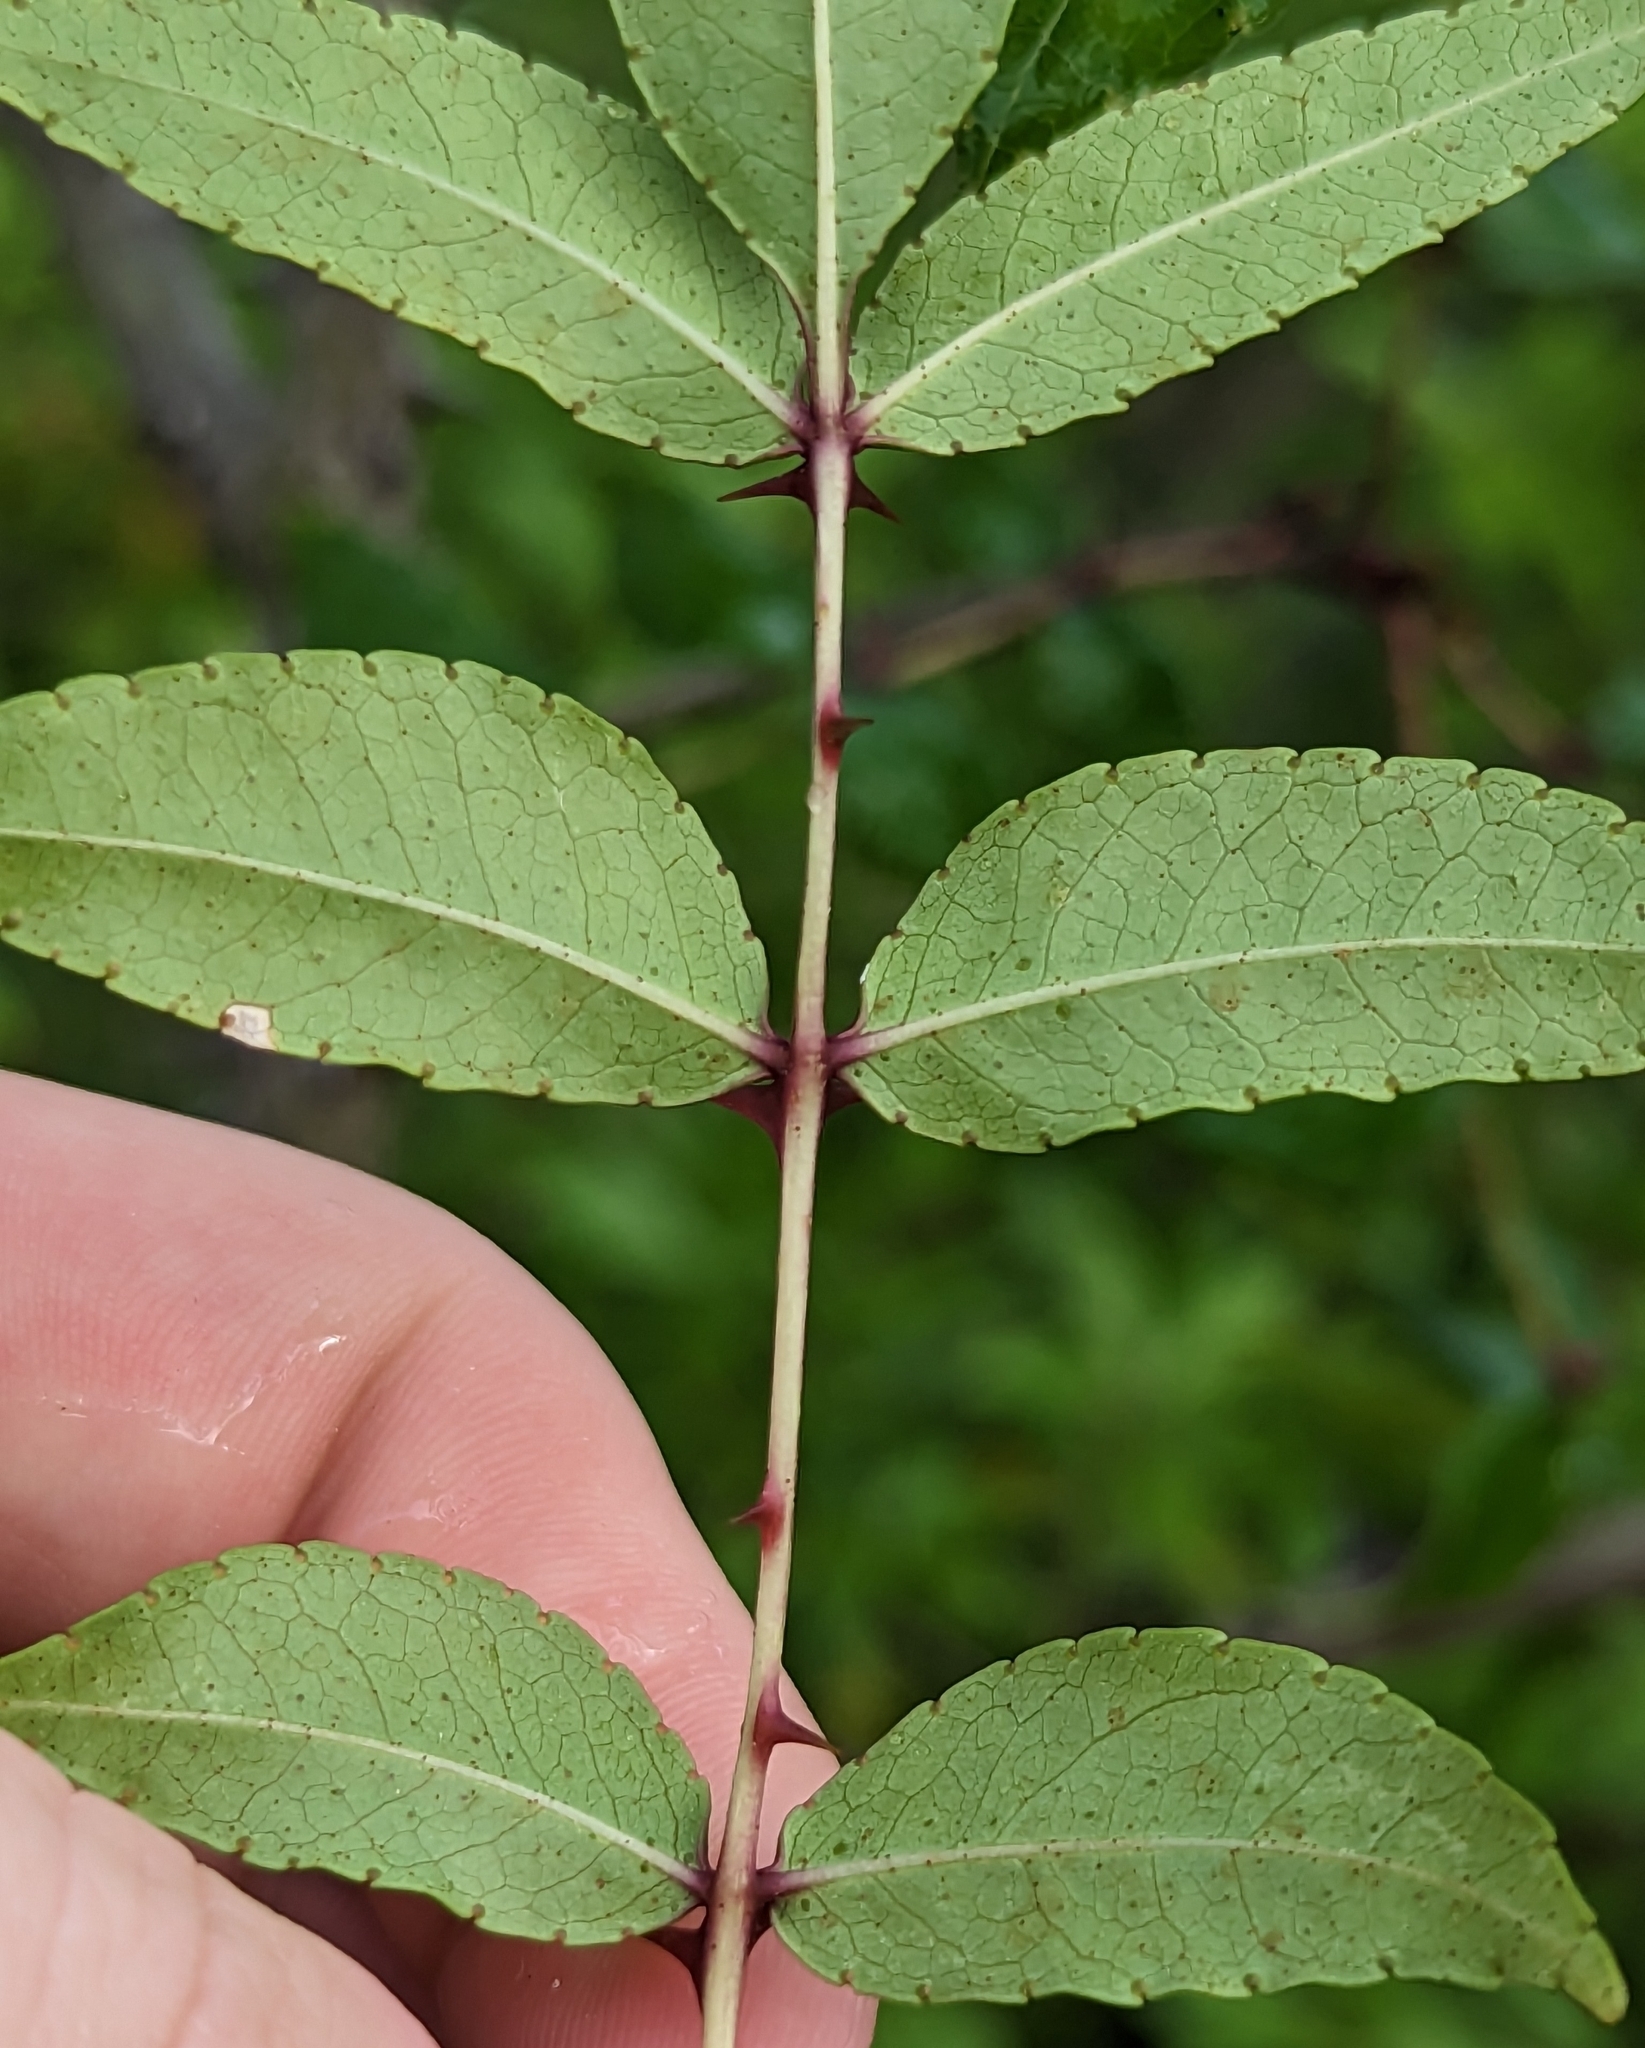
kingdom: Plantae
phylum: Tracheophyta
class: Magnoliopsida
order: Sapindales
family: Rutaceae
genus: Zanthoxylum
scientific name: Zanthoxylum clava-herculis
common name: Hercules'-club
